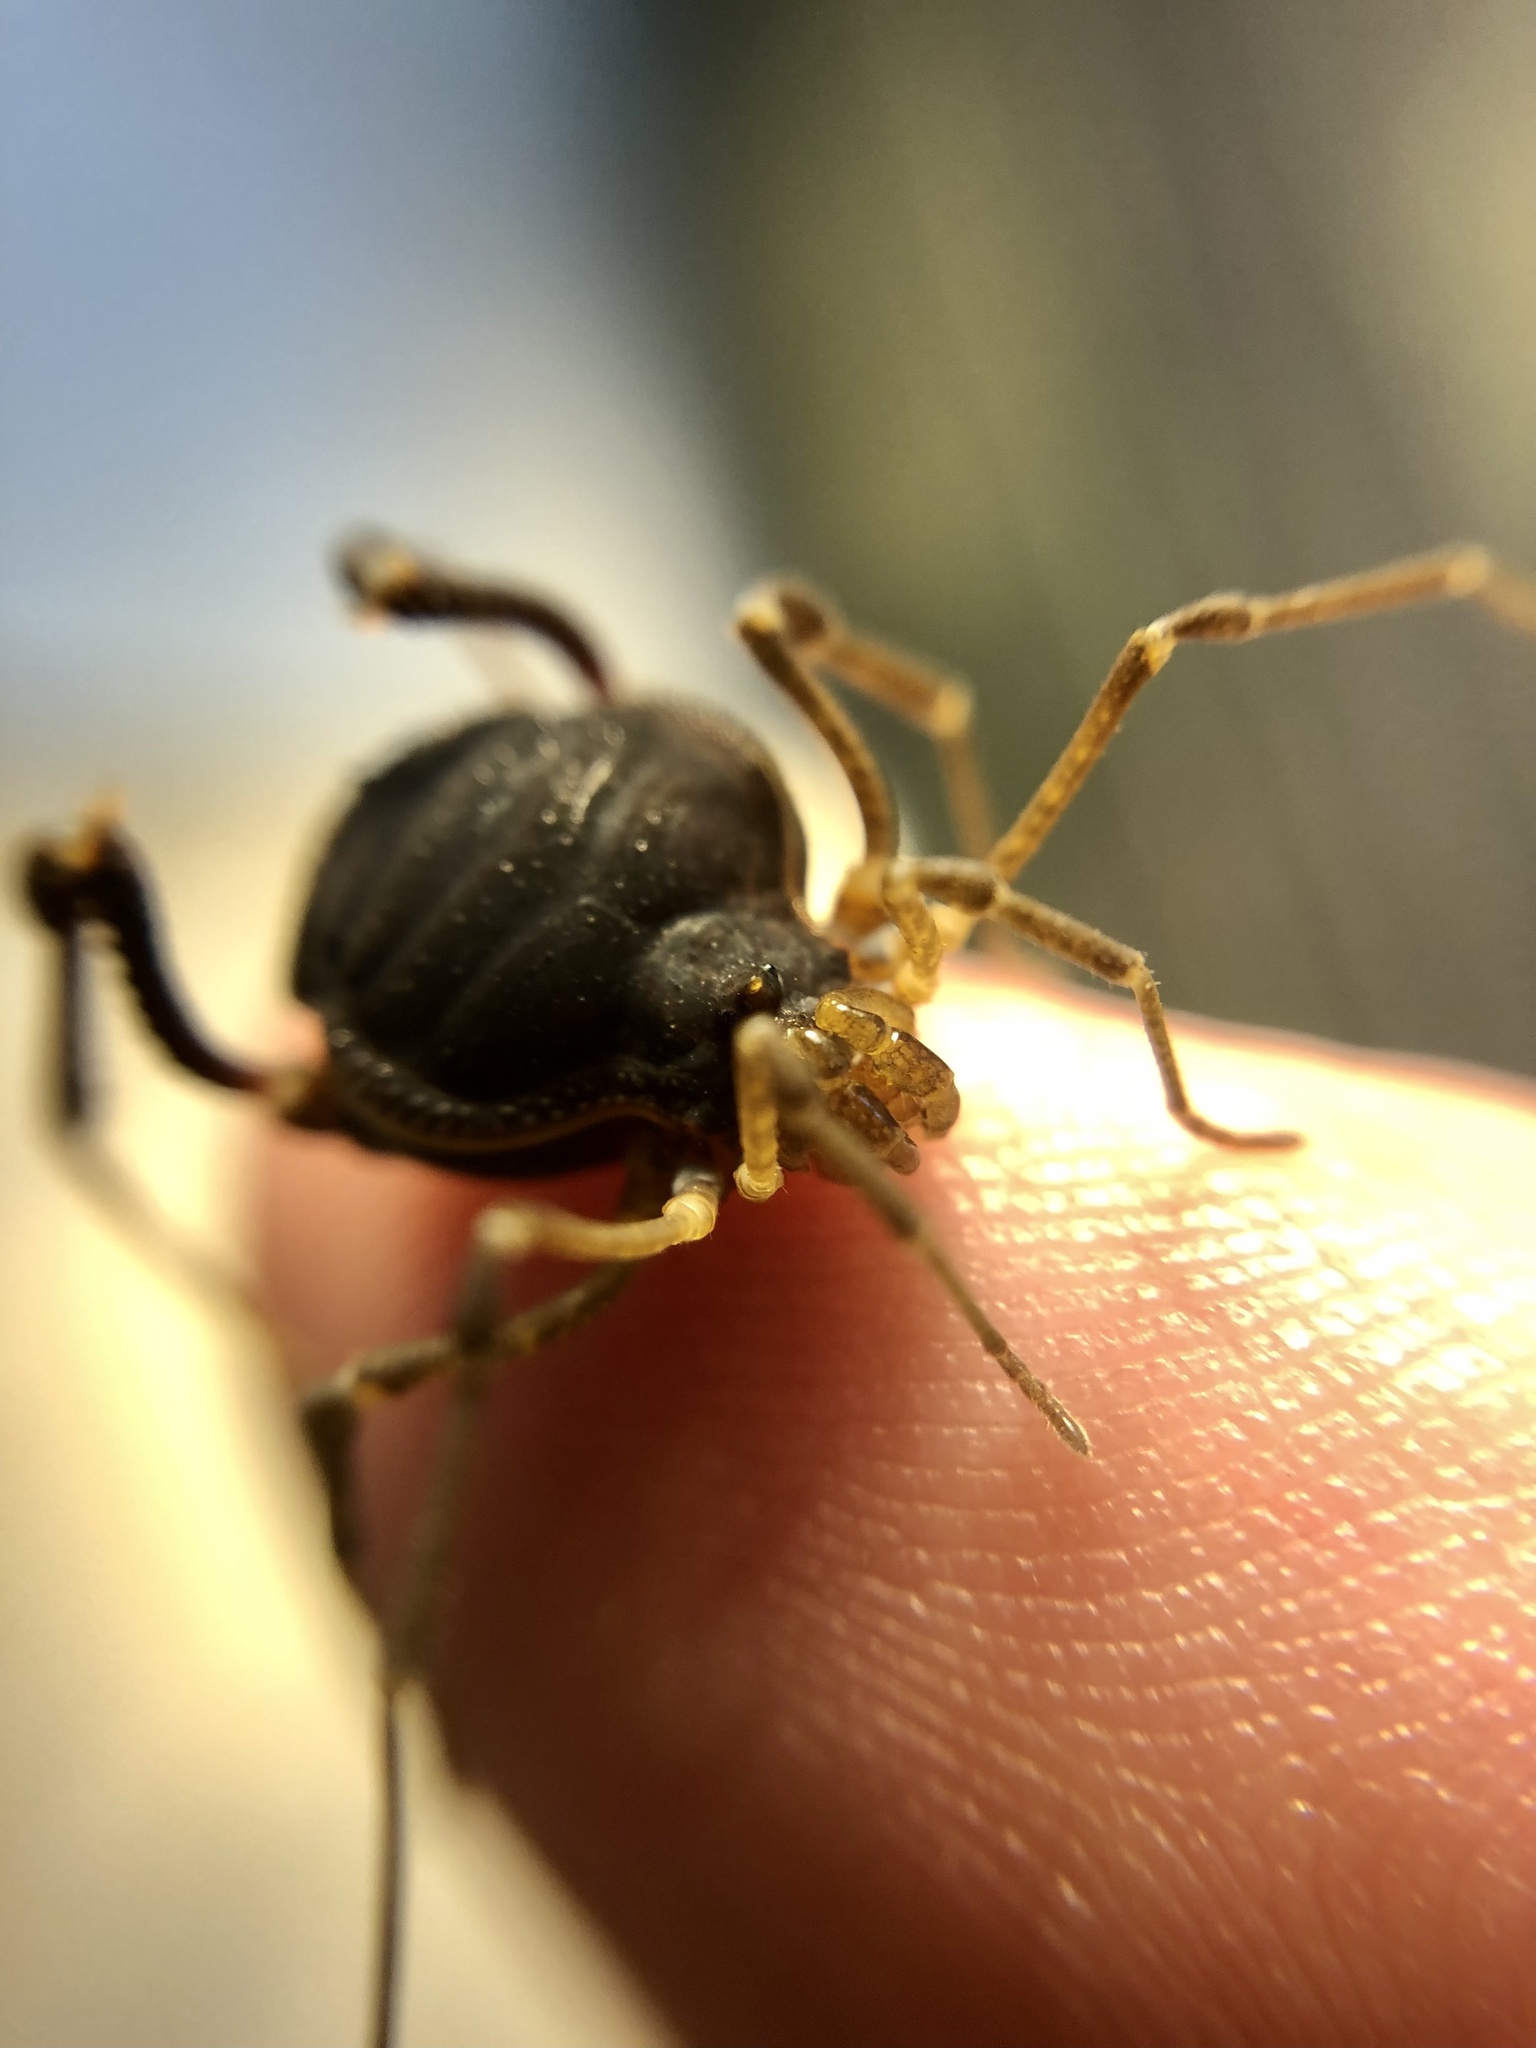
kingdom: Animalia
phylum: Arthropoda
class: Arachnida
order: Opiliones
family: Gonyleptidae
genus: Acanthopachylus
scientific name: Acanthopachylus robustus
